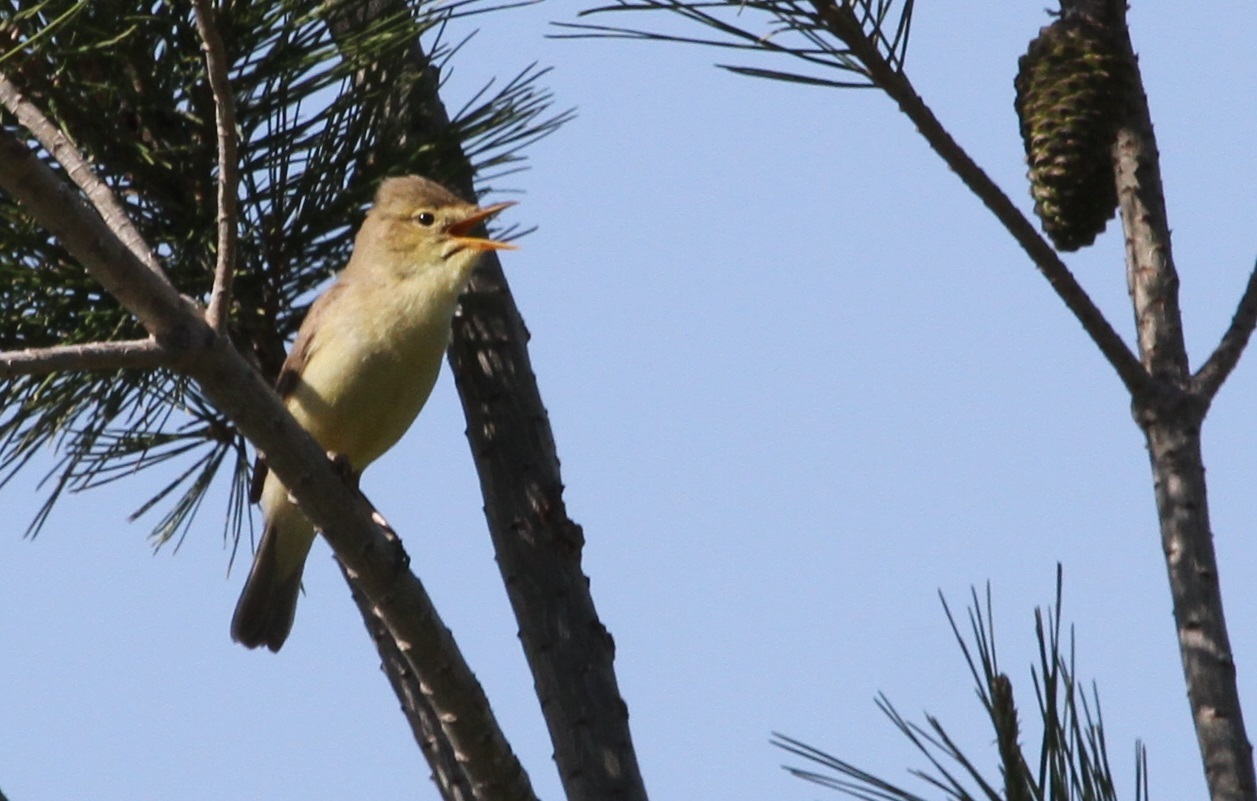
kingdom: Animalia
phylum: Chordata
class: Aves
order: Passeriformes
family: Acrocephalidae
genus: Hippolais
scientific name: Hippolais polyglotta
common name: Melodious warbler
